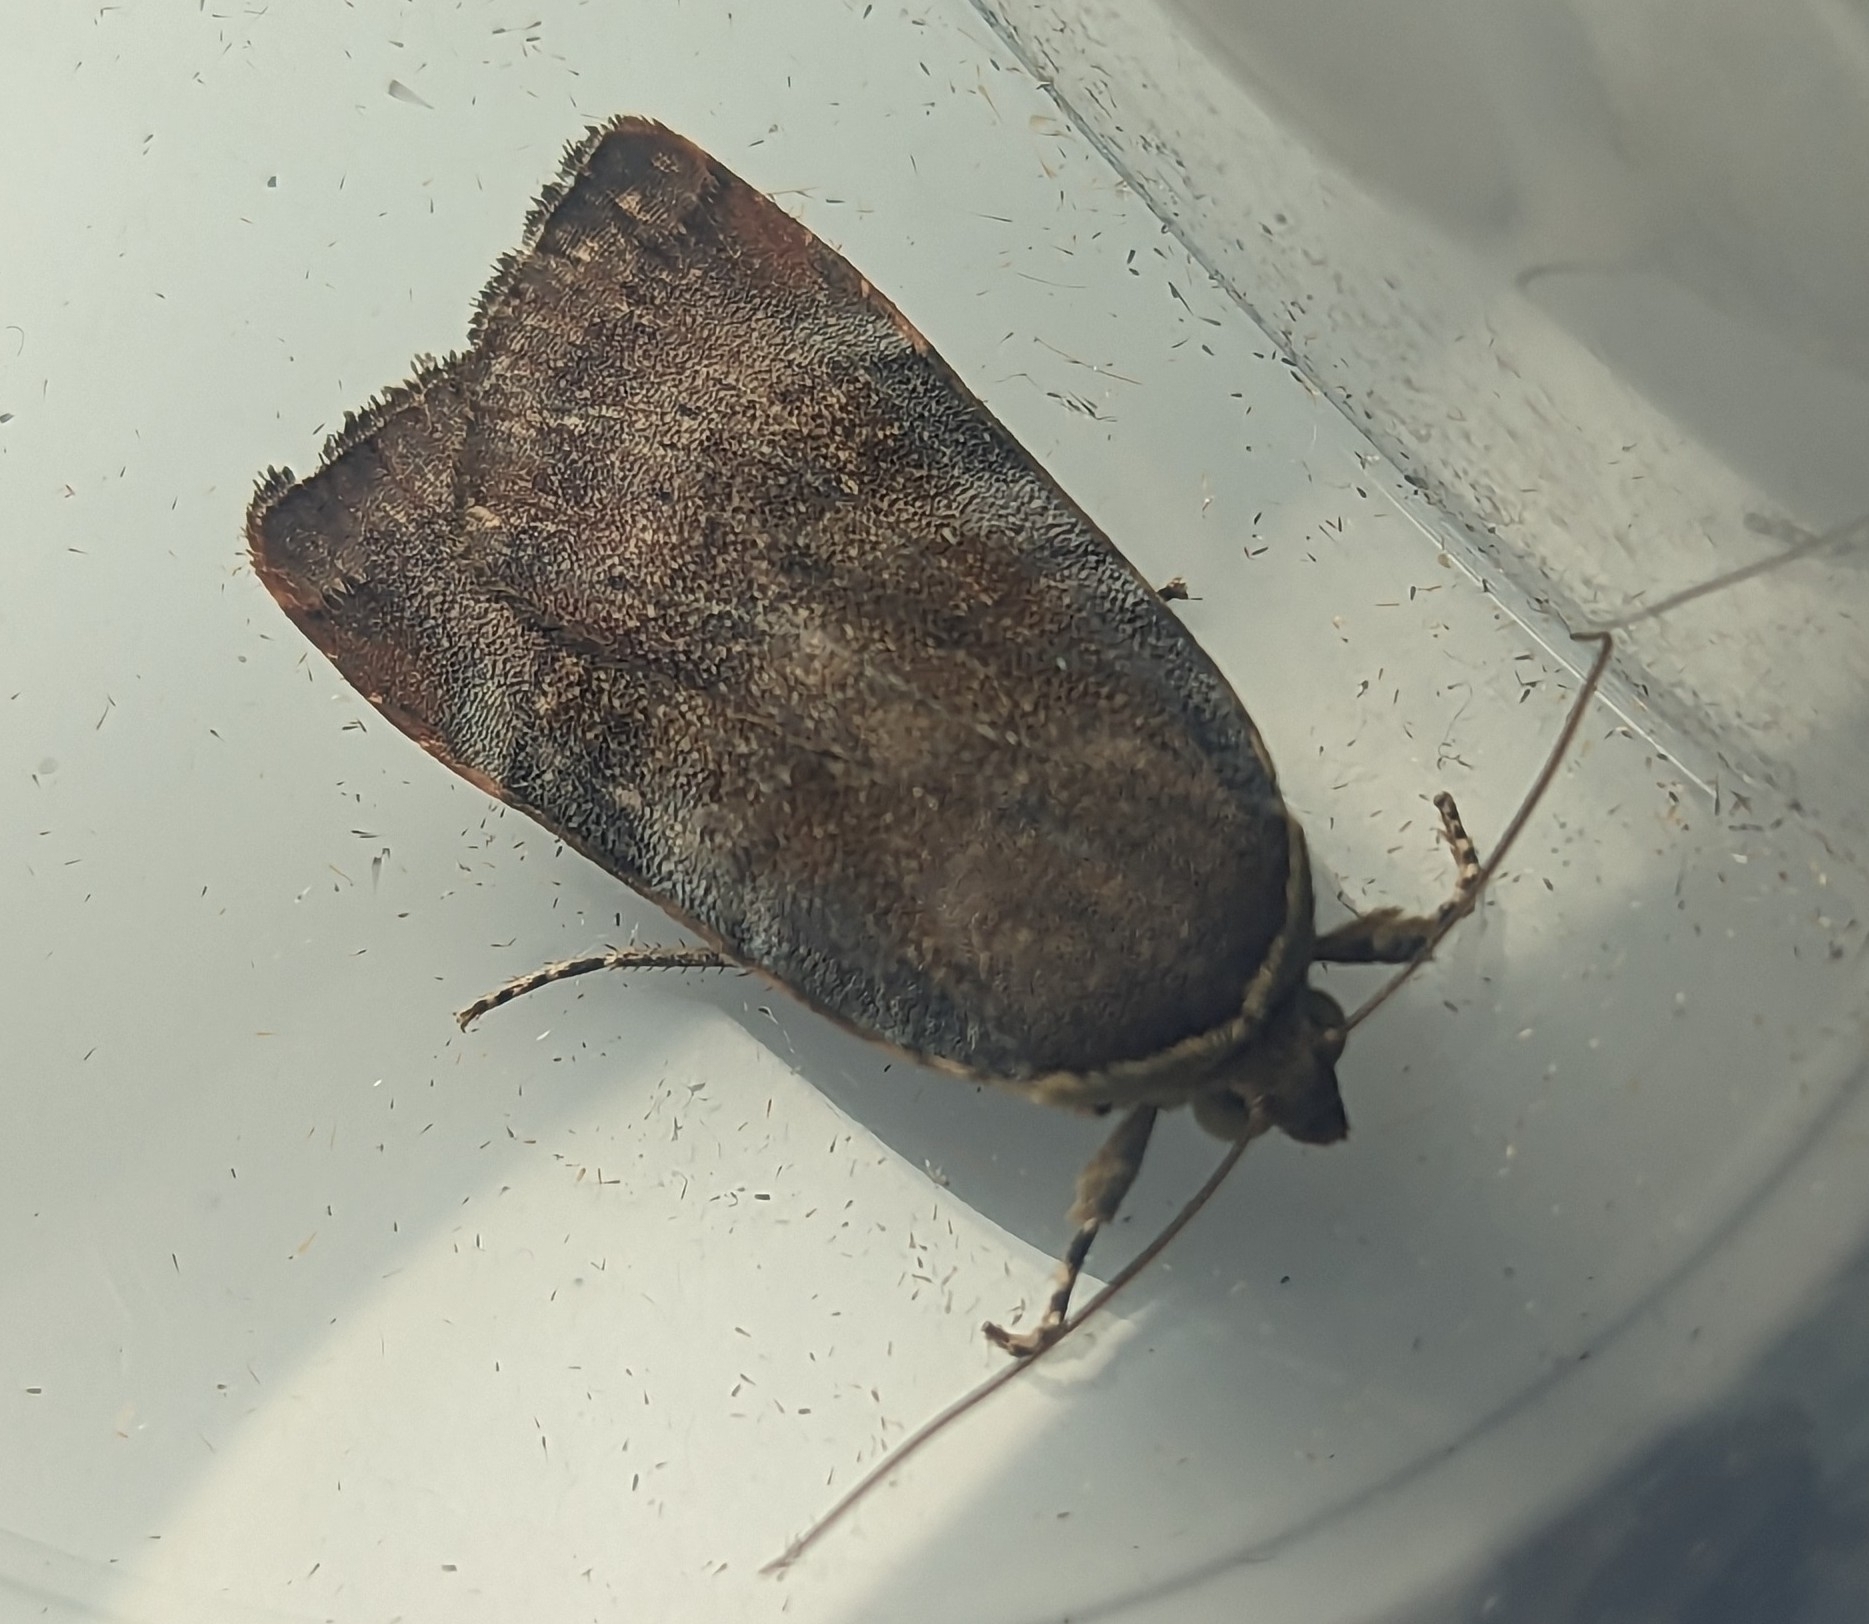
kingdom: Animalia
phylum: Arthropoda
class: Insecta
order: Lepidoptera
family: Noctuidae
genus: Noctua
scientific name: Noctua janthe
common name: Lesser broad-bordered yellow underwing
